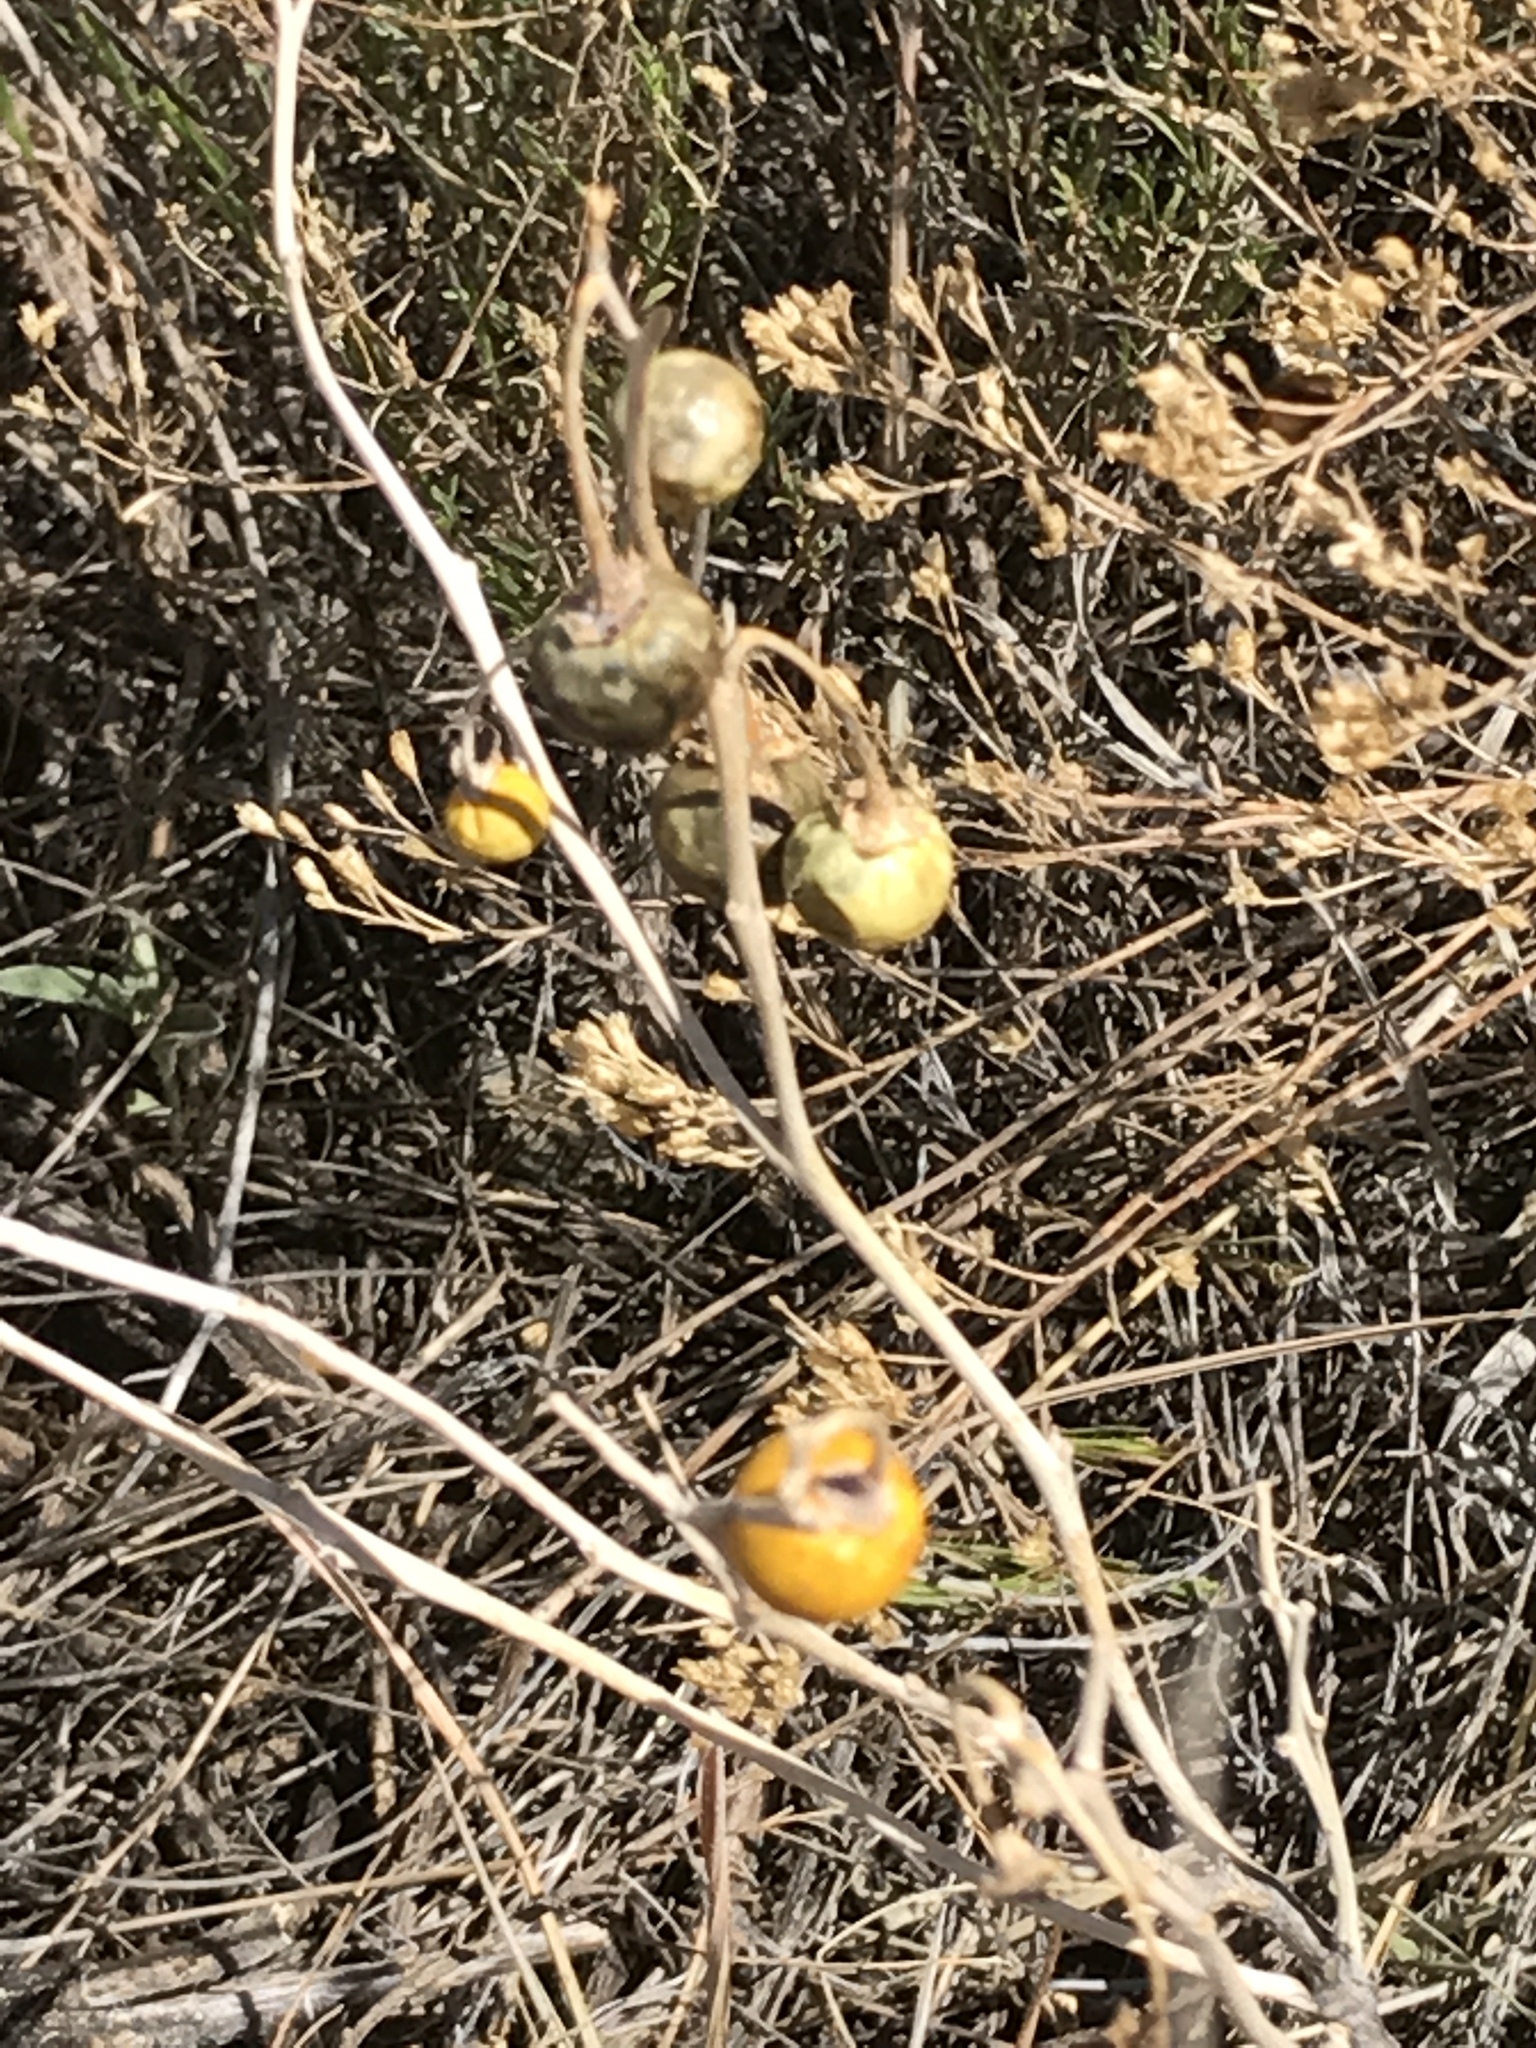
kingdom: Plantae
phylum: Tracheophyta
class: Magnoliopsida
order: Solanales
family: Solanaceae
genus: Solanum
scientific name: Solanum elaeagnifolium
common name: Silverleaf nightshade
